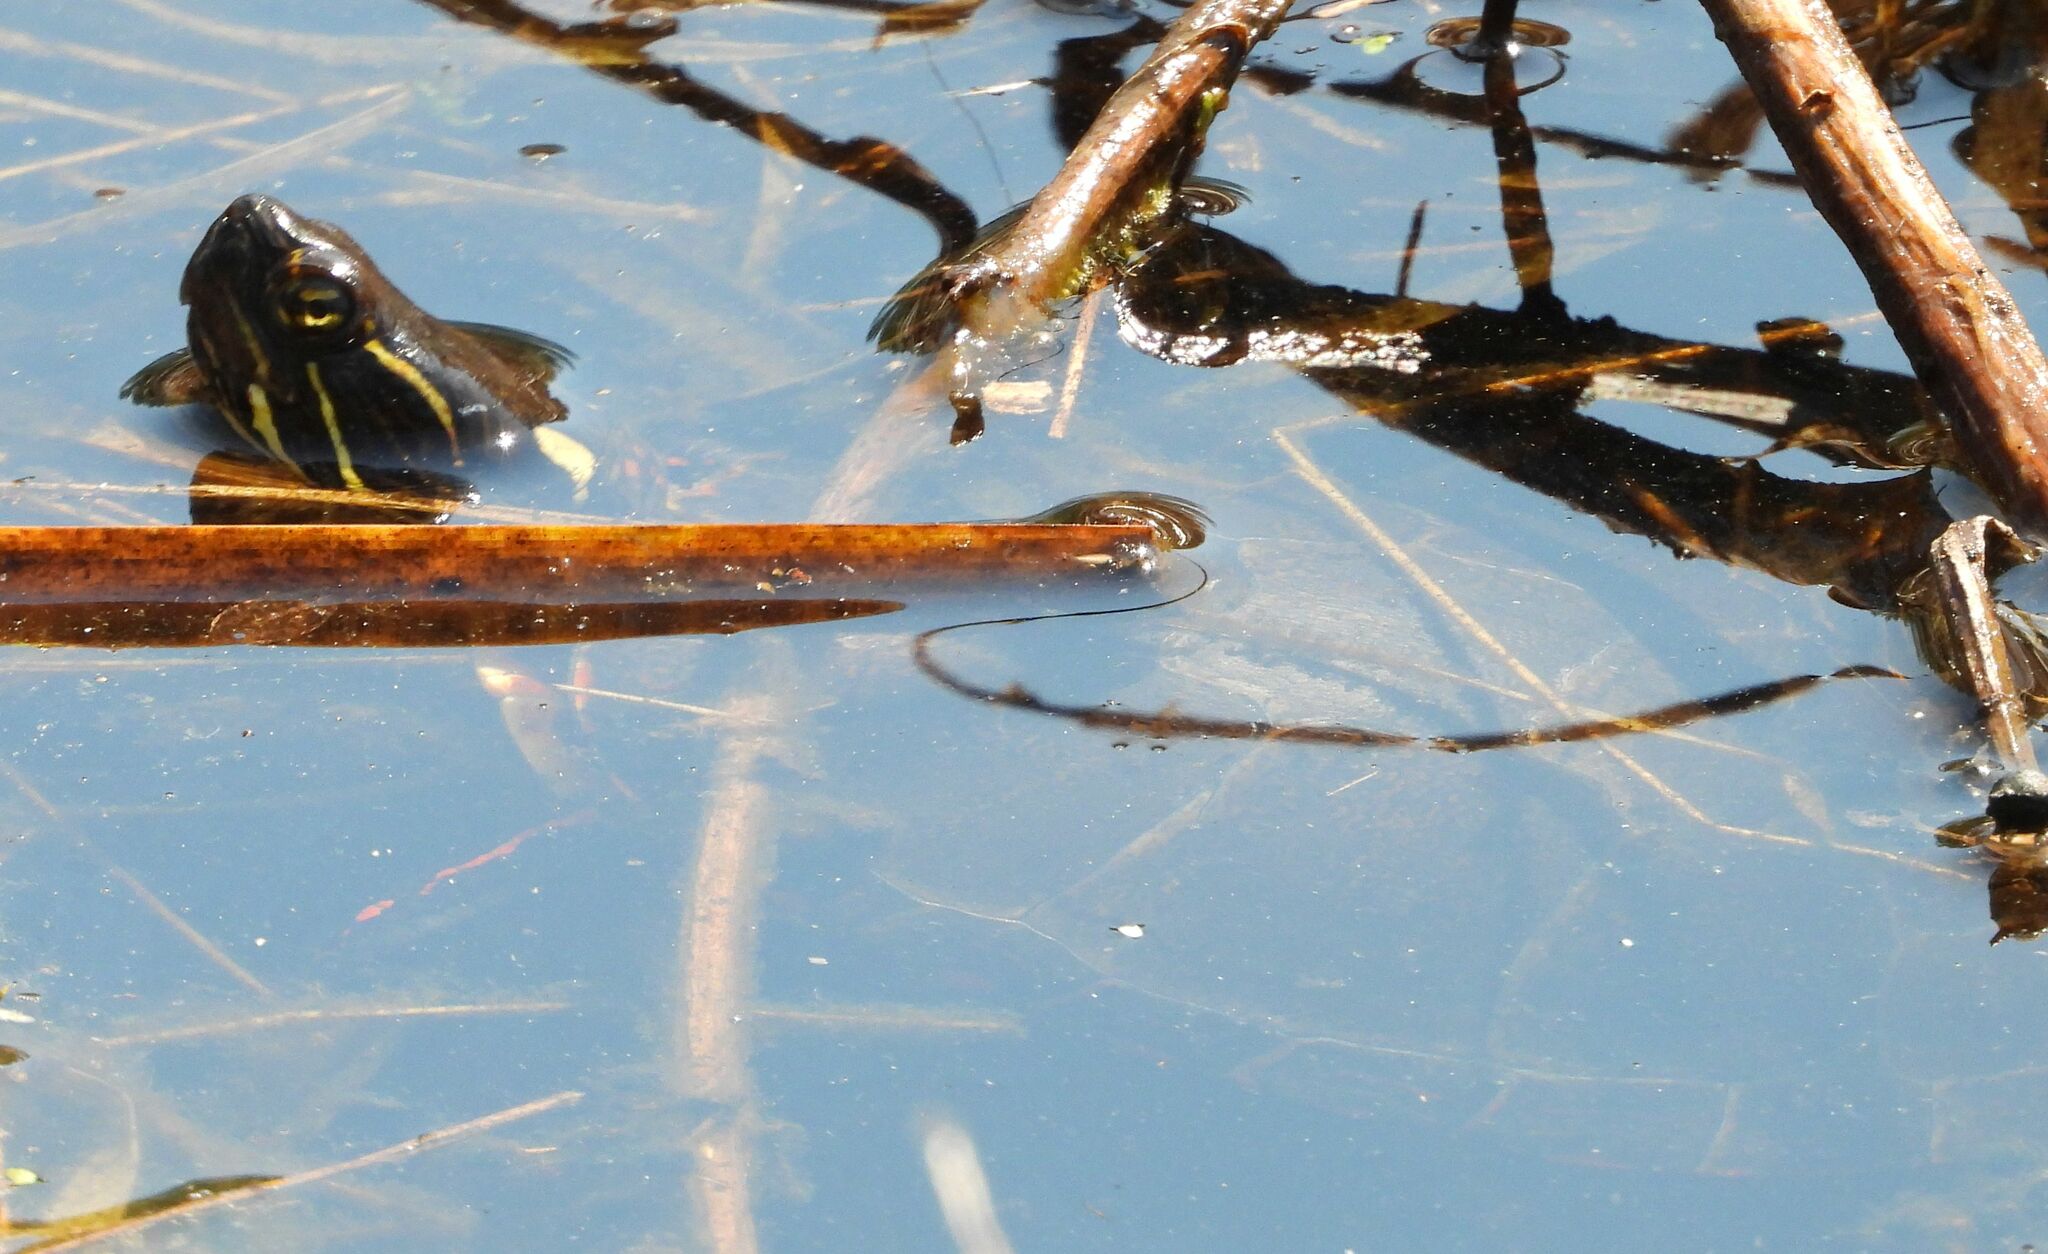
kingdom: Animalia
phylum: Chordata
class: Testudines
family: Emydidae
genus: Chrysemys
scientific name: Chrysemys picta
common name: Painted turtle
